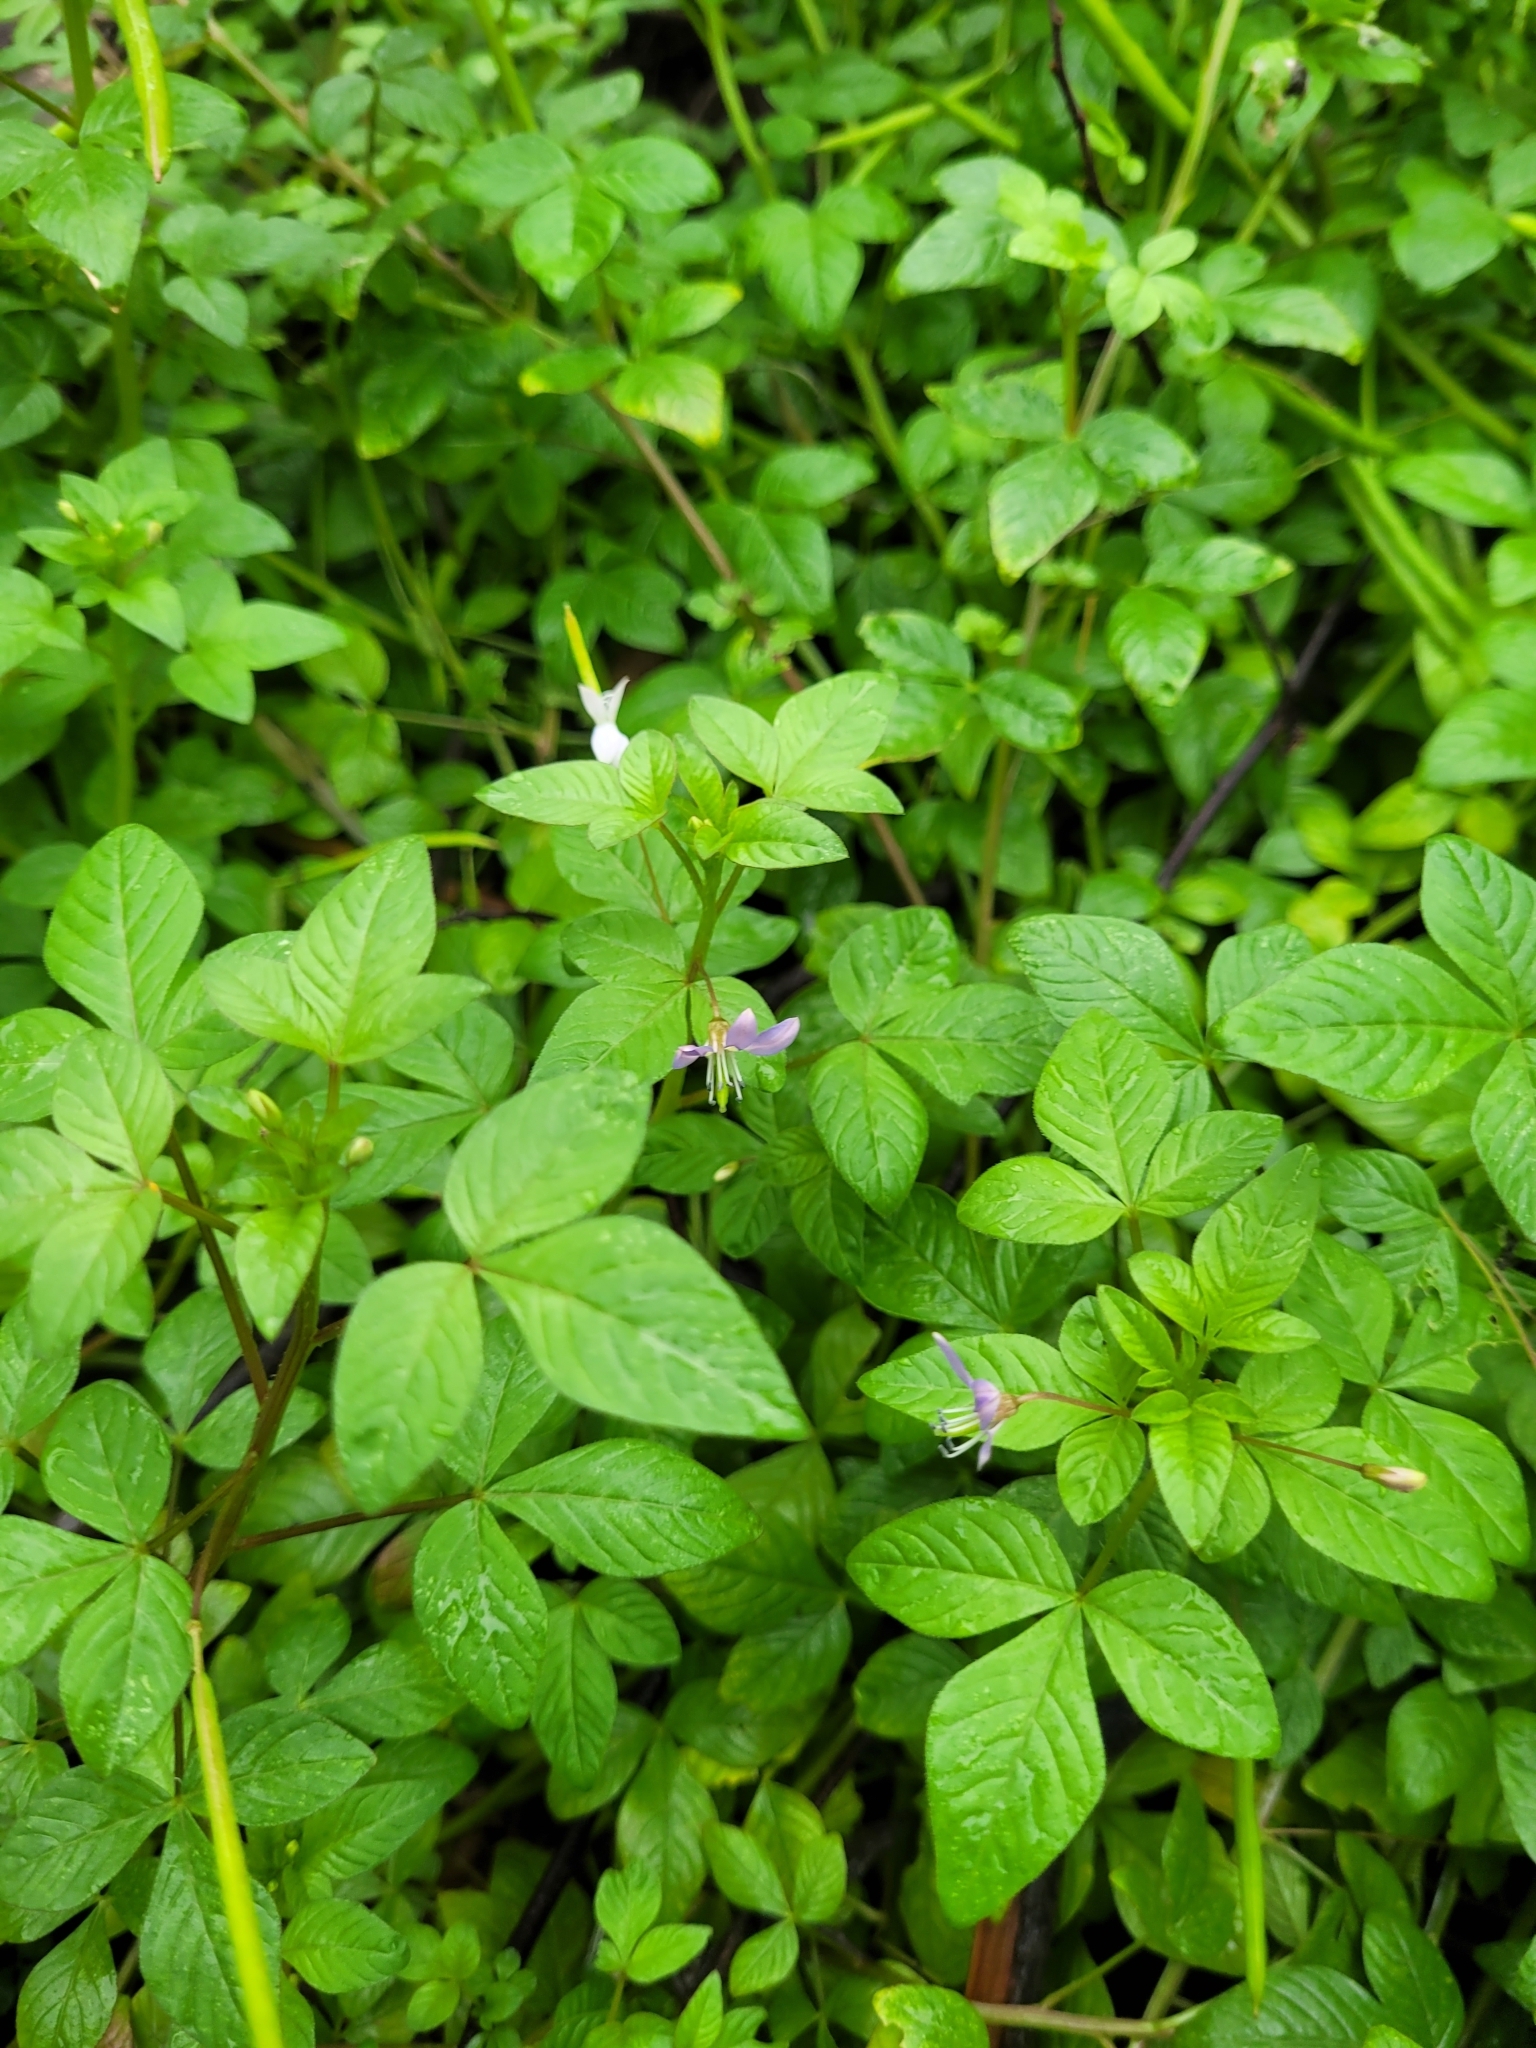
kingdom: Plantae
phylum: Tracheophyta
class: Magnoliopsida
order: Brassicales
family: Cleomaceae
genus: Sieruela
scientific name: Sieruela rutidosperma
